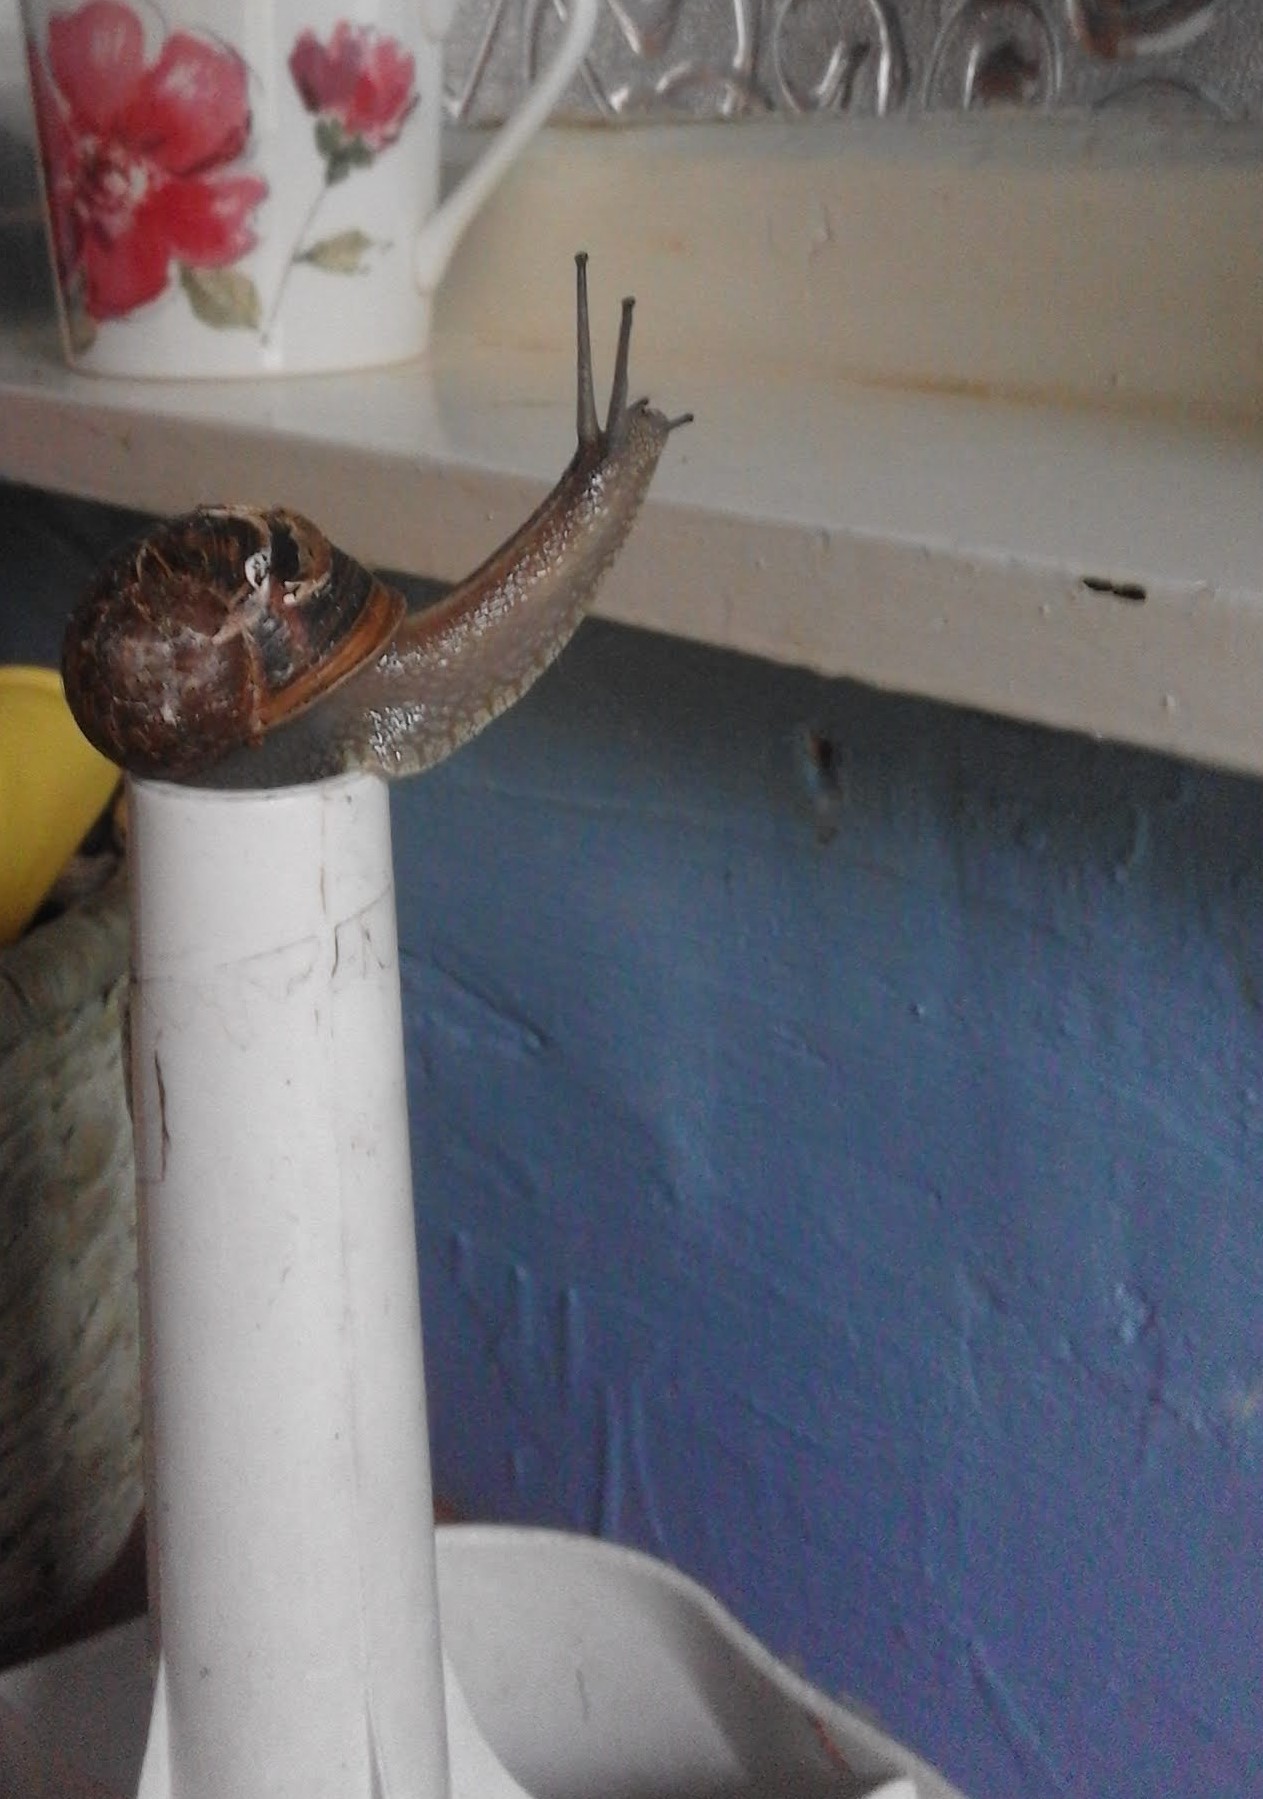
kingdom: Animalia
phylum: Mollusca
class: Gastropoda
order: Stylommatophora
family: Helicidae
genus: Cornu
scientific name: Cornu aspersum
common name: Brown garden snail
